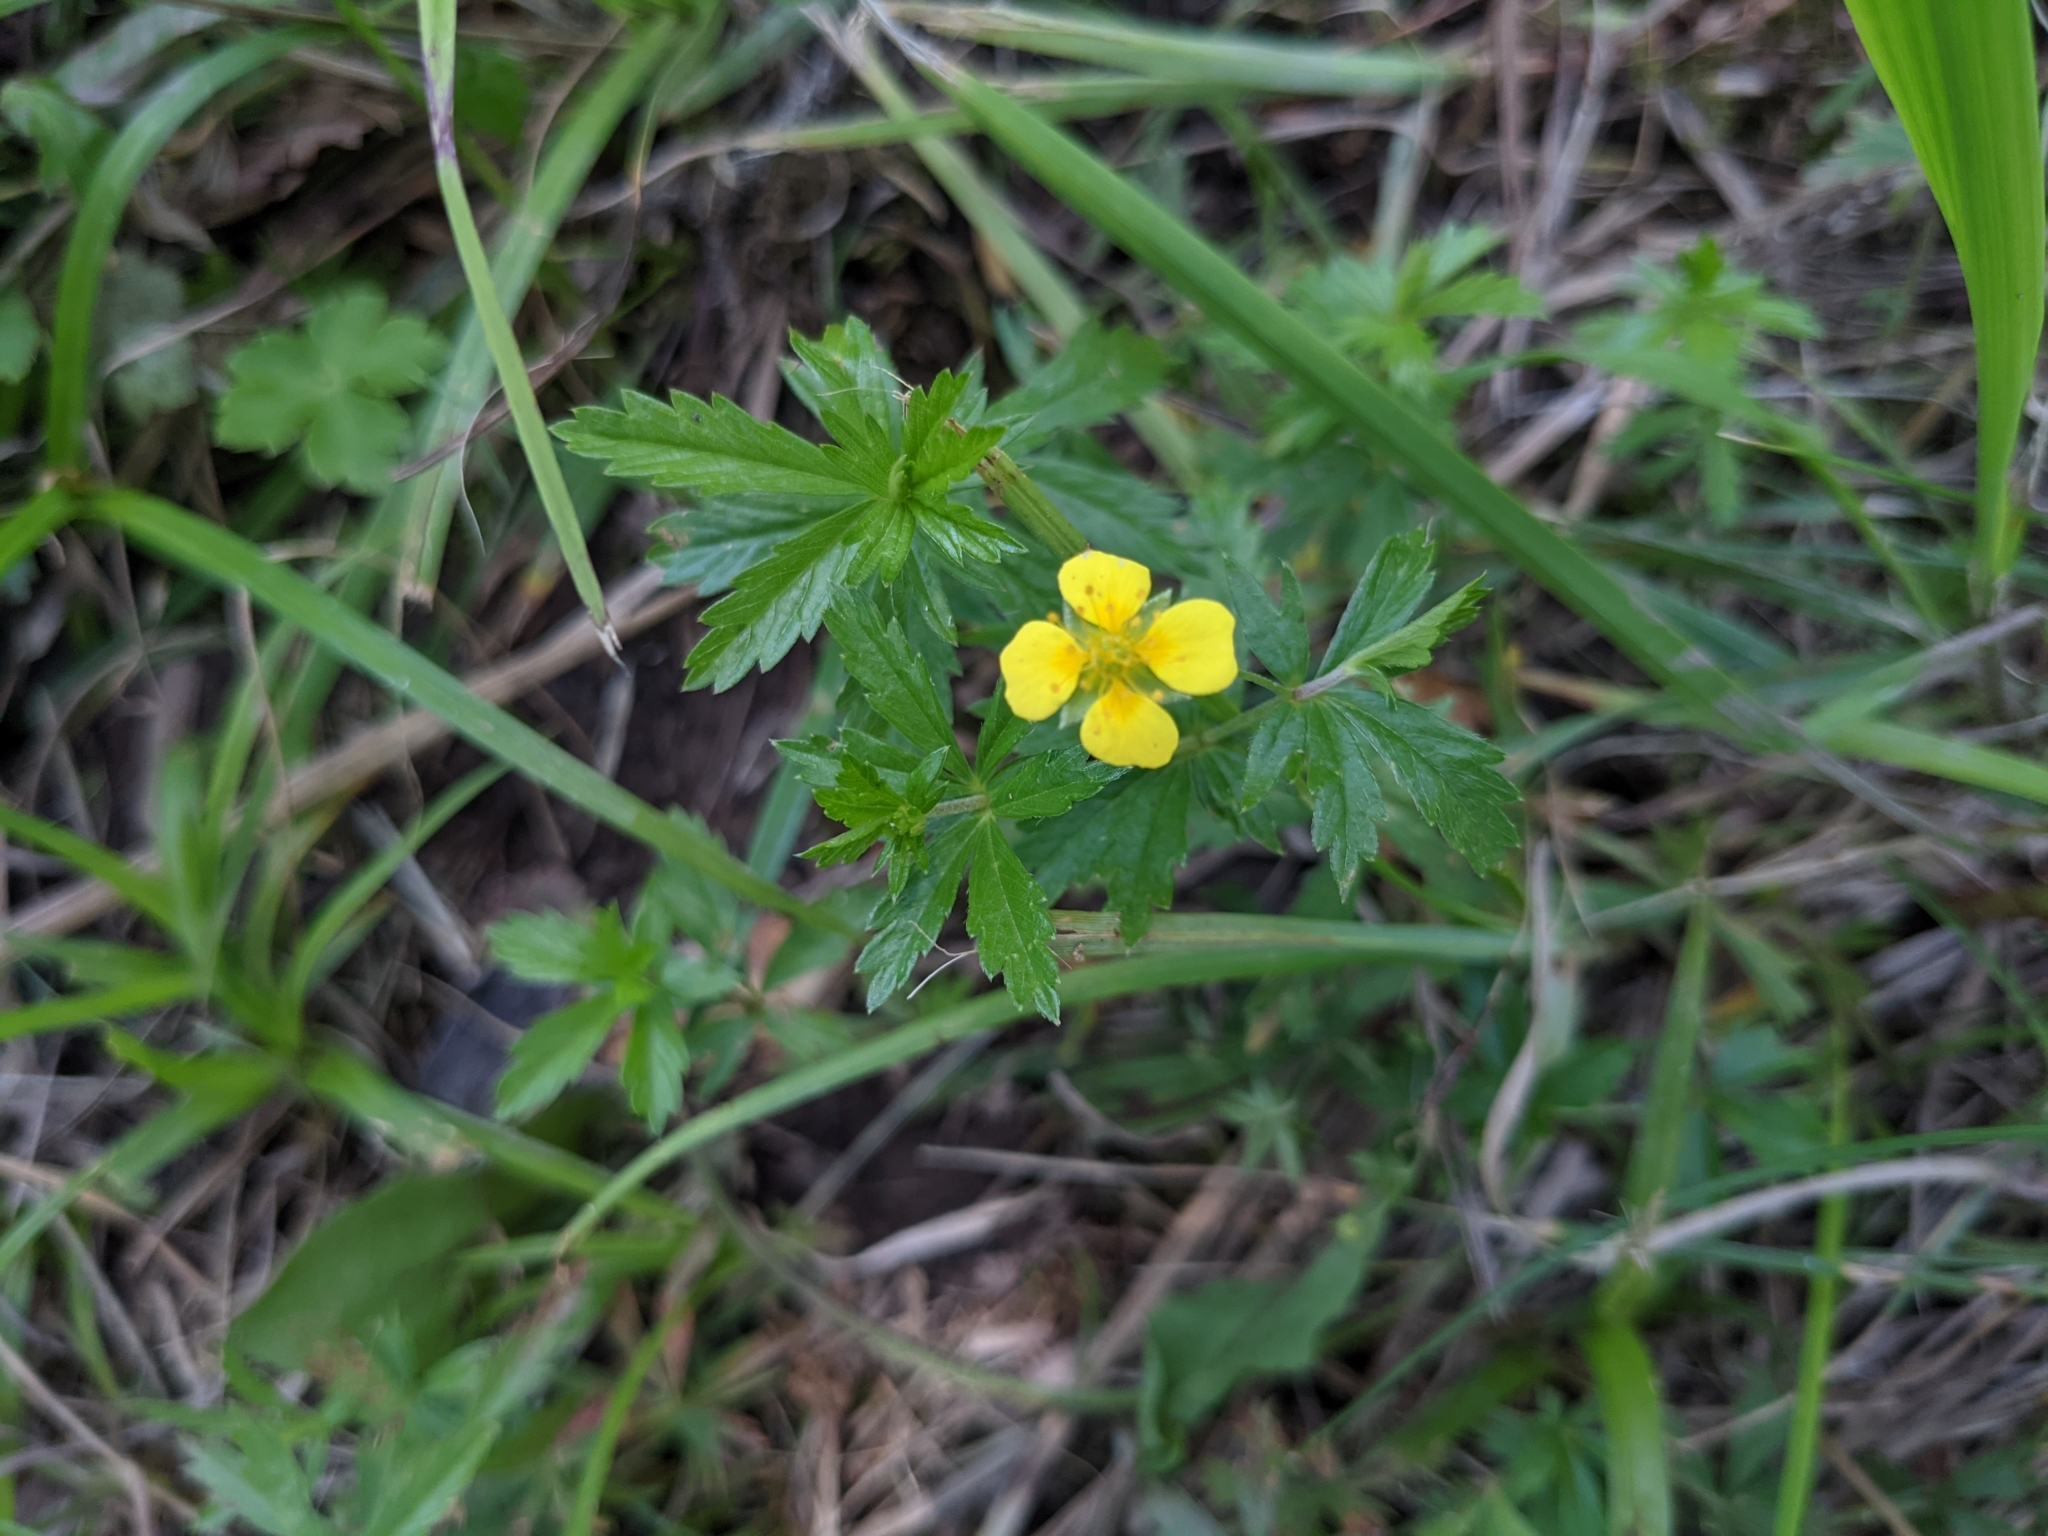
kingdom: Plantae
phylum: Tracheophyta
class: Magnoliopsida
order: Rosales
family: Rosaceae
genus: Potentilla
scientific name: Potentilla erecta
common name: Tormentil
